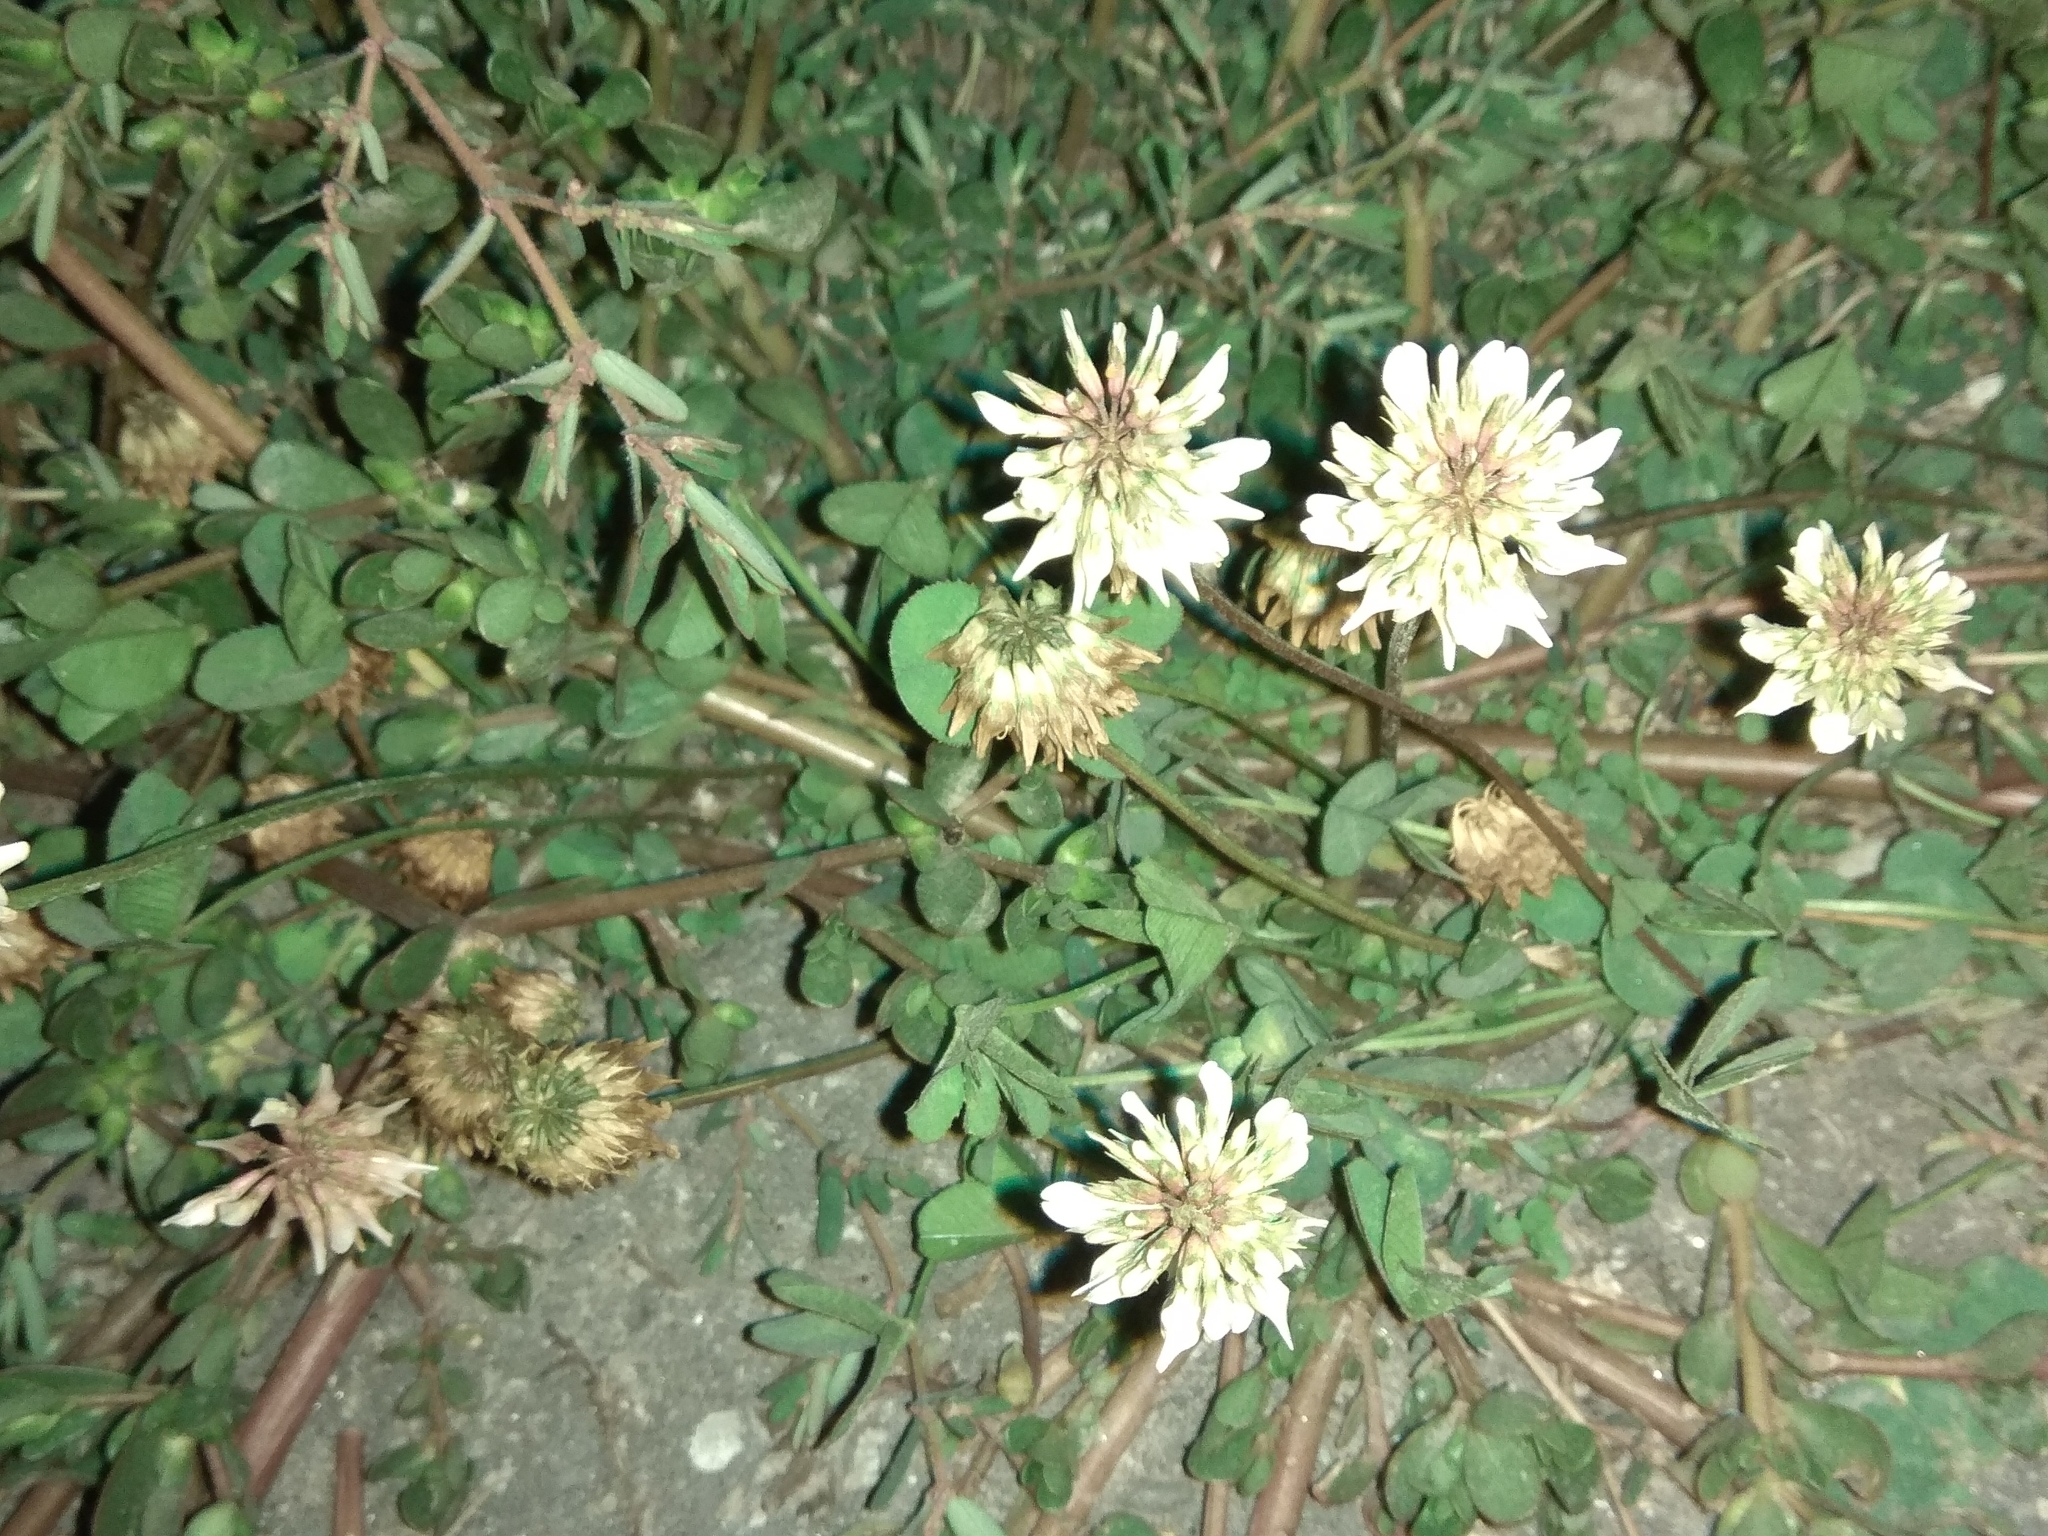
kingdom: Plantae
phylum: Tracheophyta
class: Magnoliopsida
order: Fabales
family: Fabaceae
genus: Trifolium
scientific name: Trifolium ambiguum
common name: Kura clover
